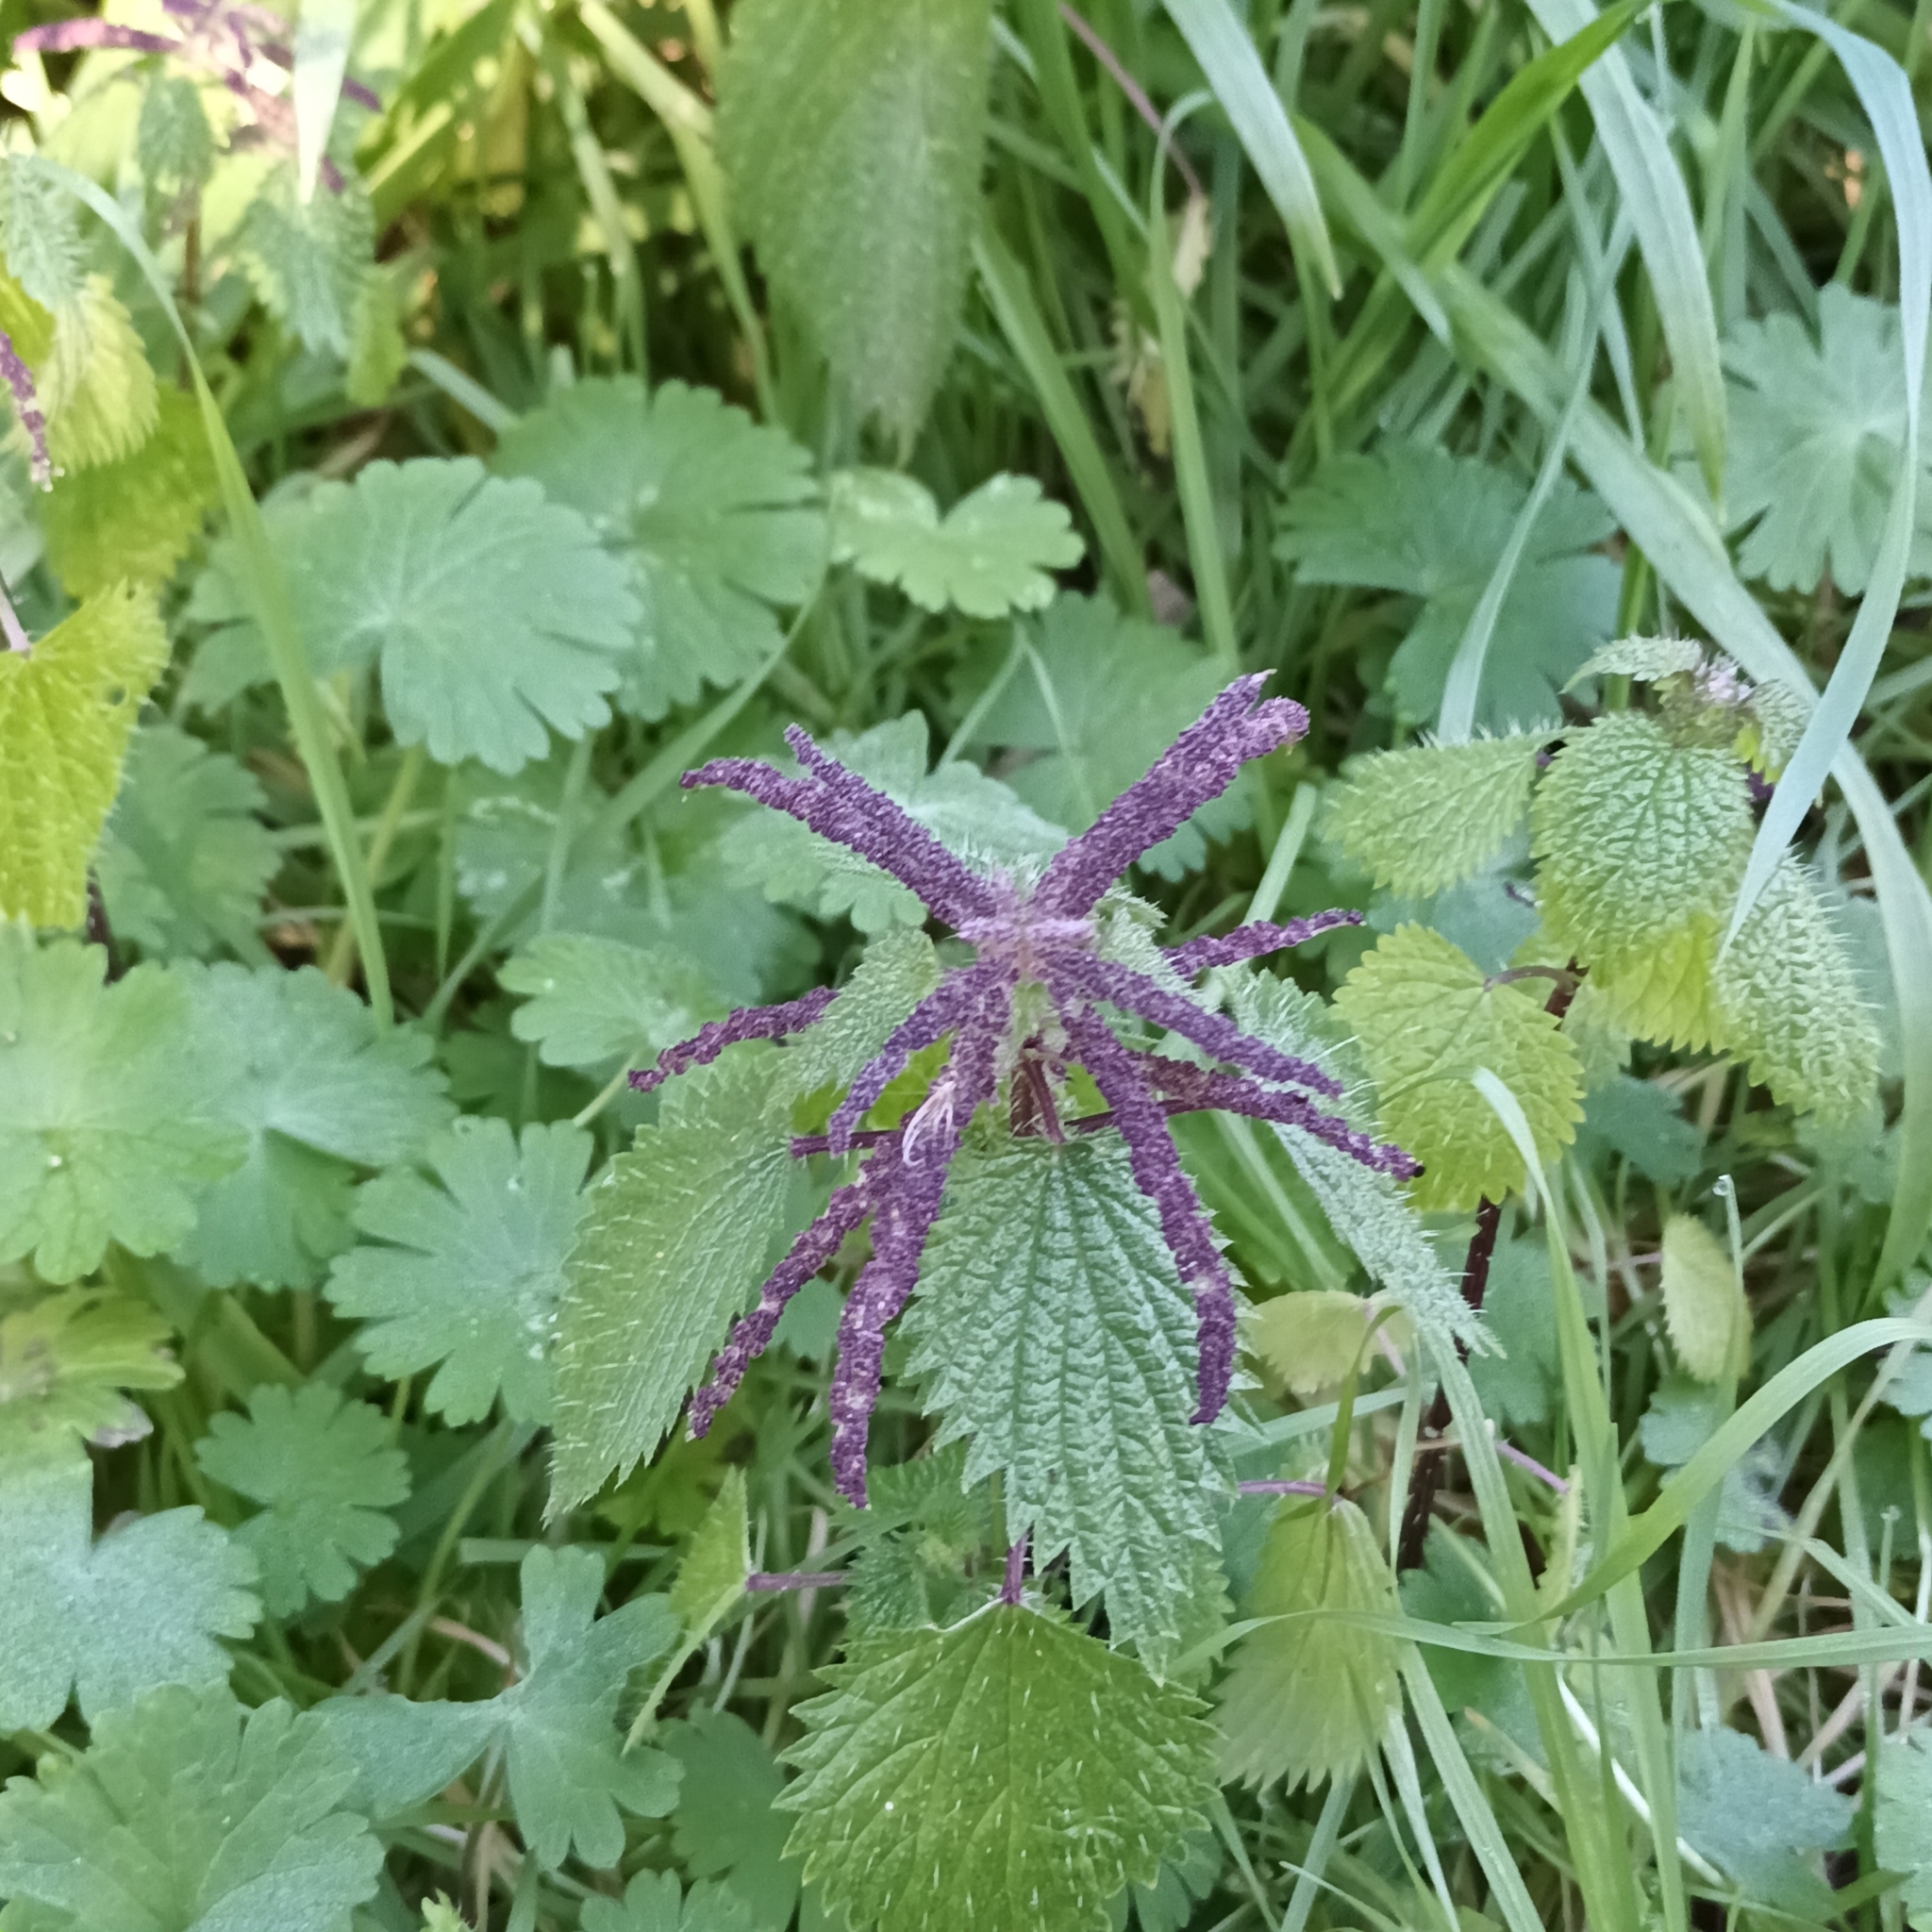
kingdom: Plantae
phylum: Tracheophyta
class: Magnoliopsida
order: Rosales
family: Urticaceae
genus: Urtica
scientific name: Urtica membranacea
